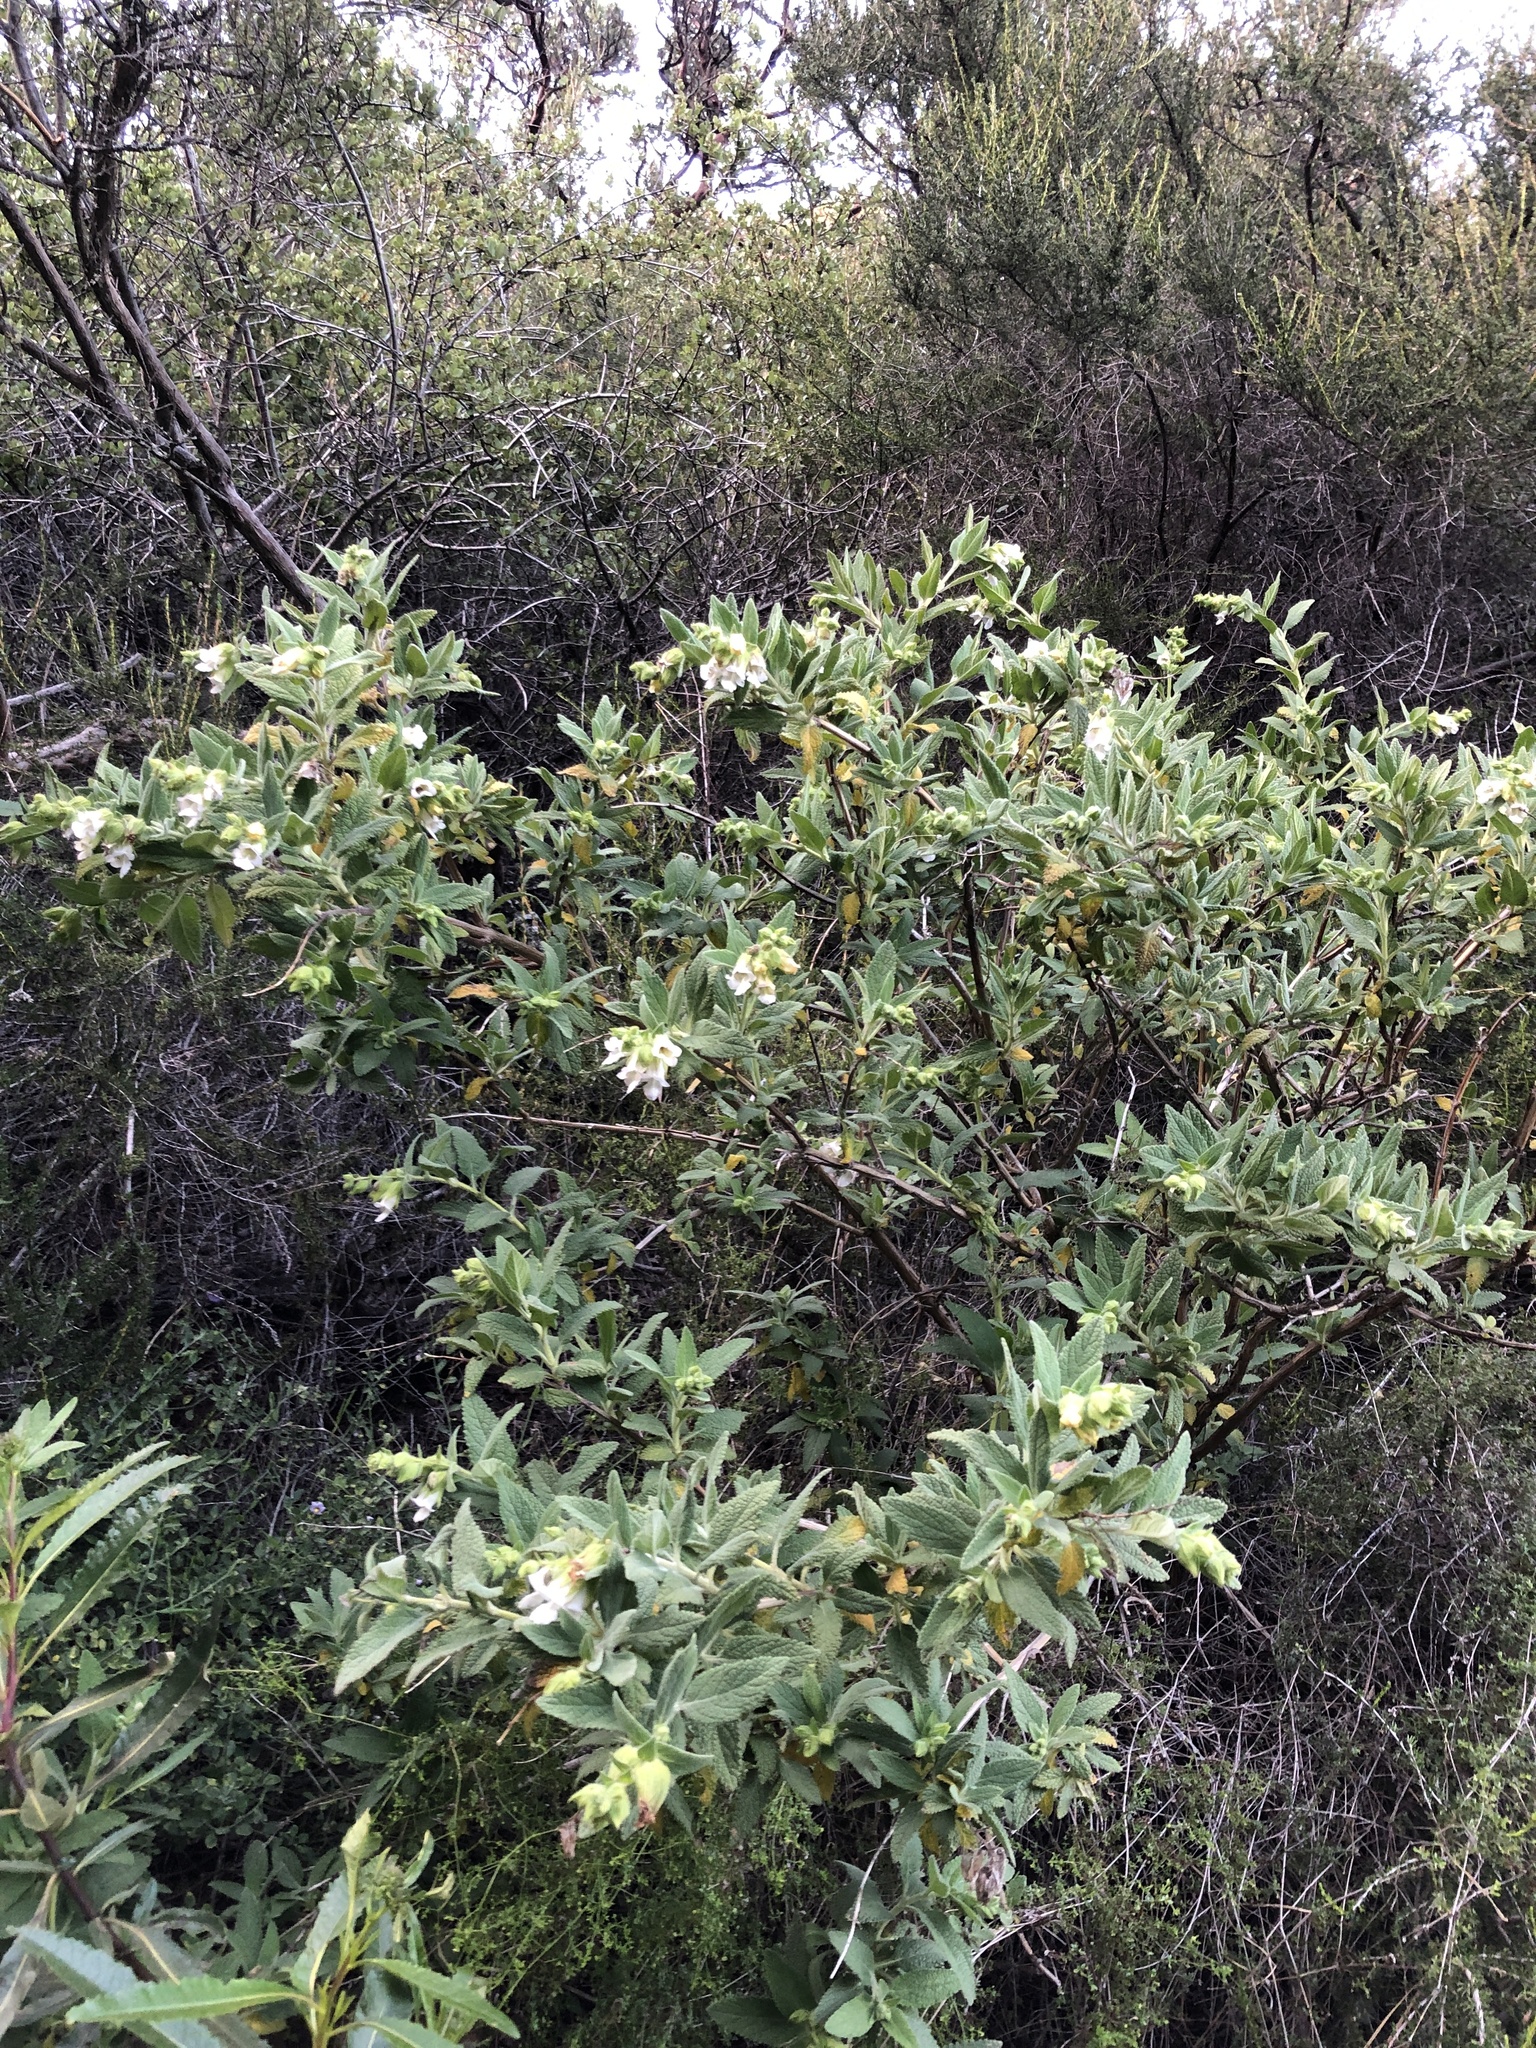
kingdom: Plantae
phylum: Tracheophyta
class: Magnoliopsida
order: Lamiales
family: Lamiaceae
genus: Lepechinia
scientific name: Lepechinia calycina
